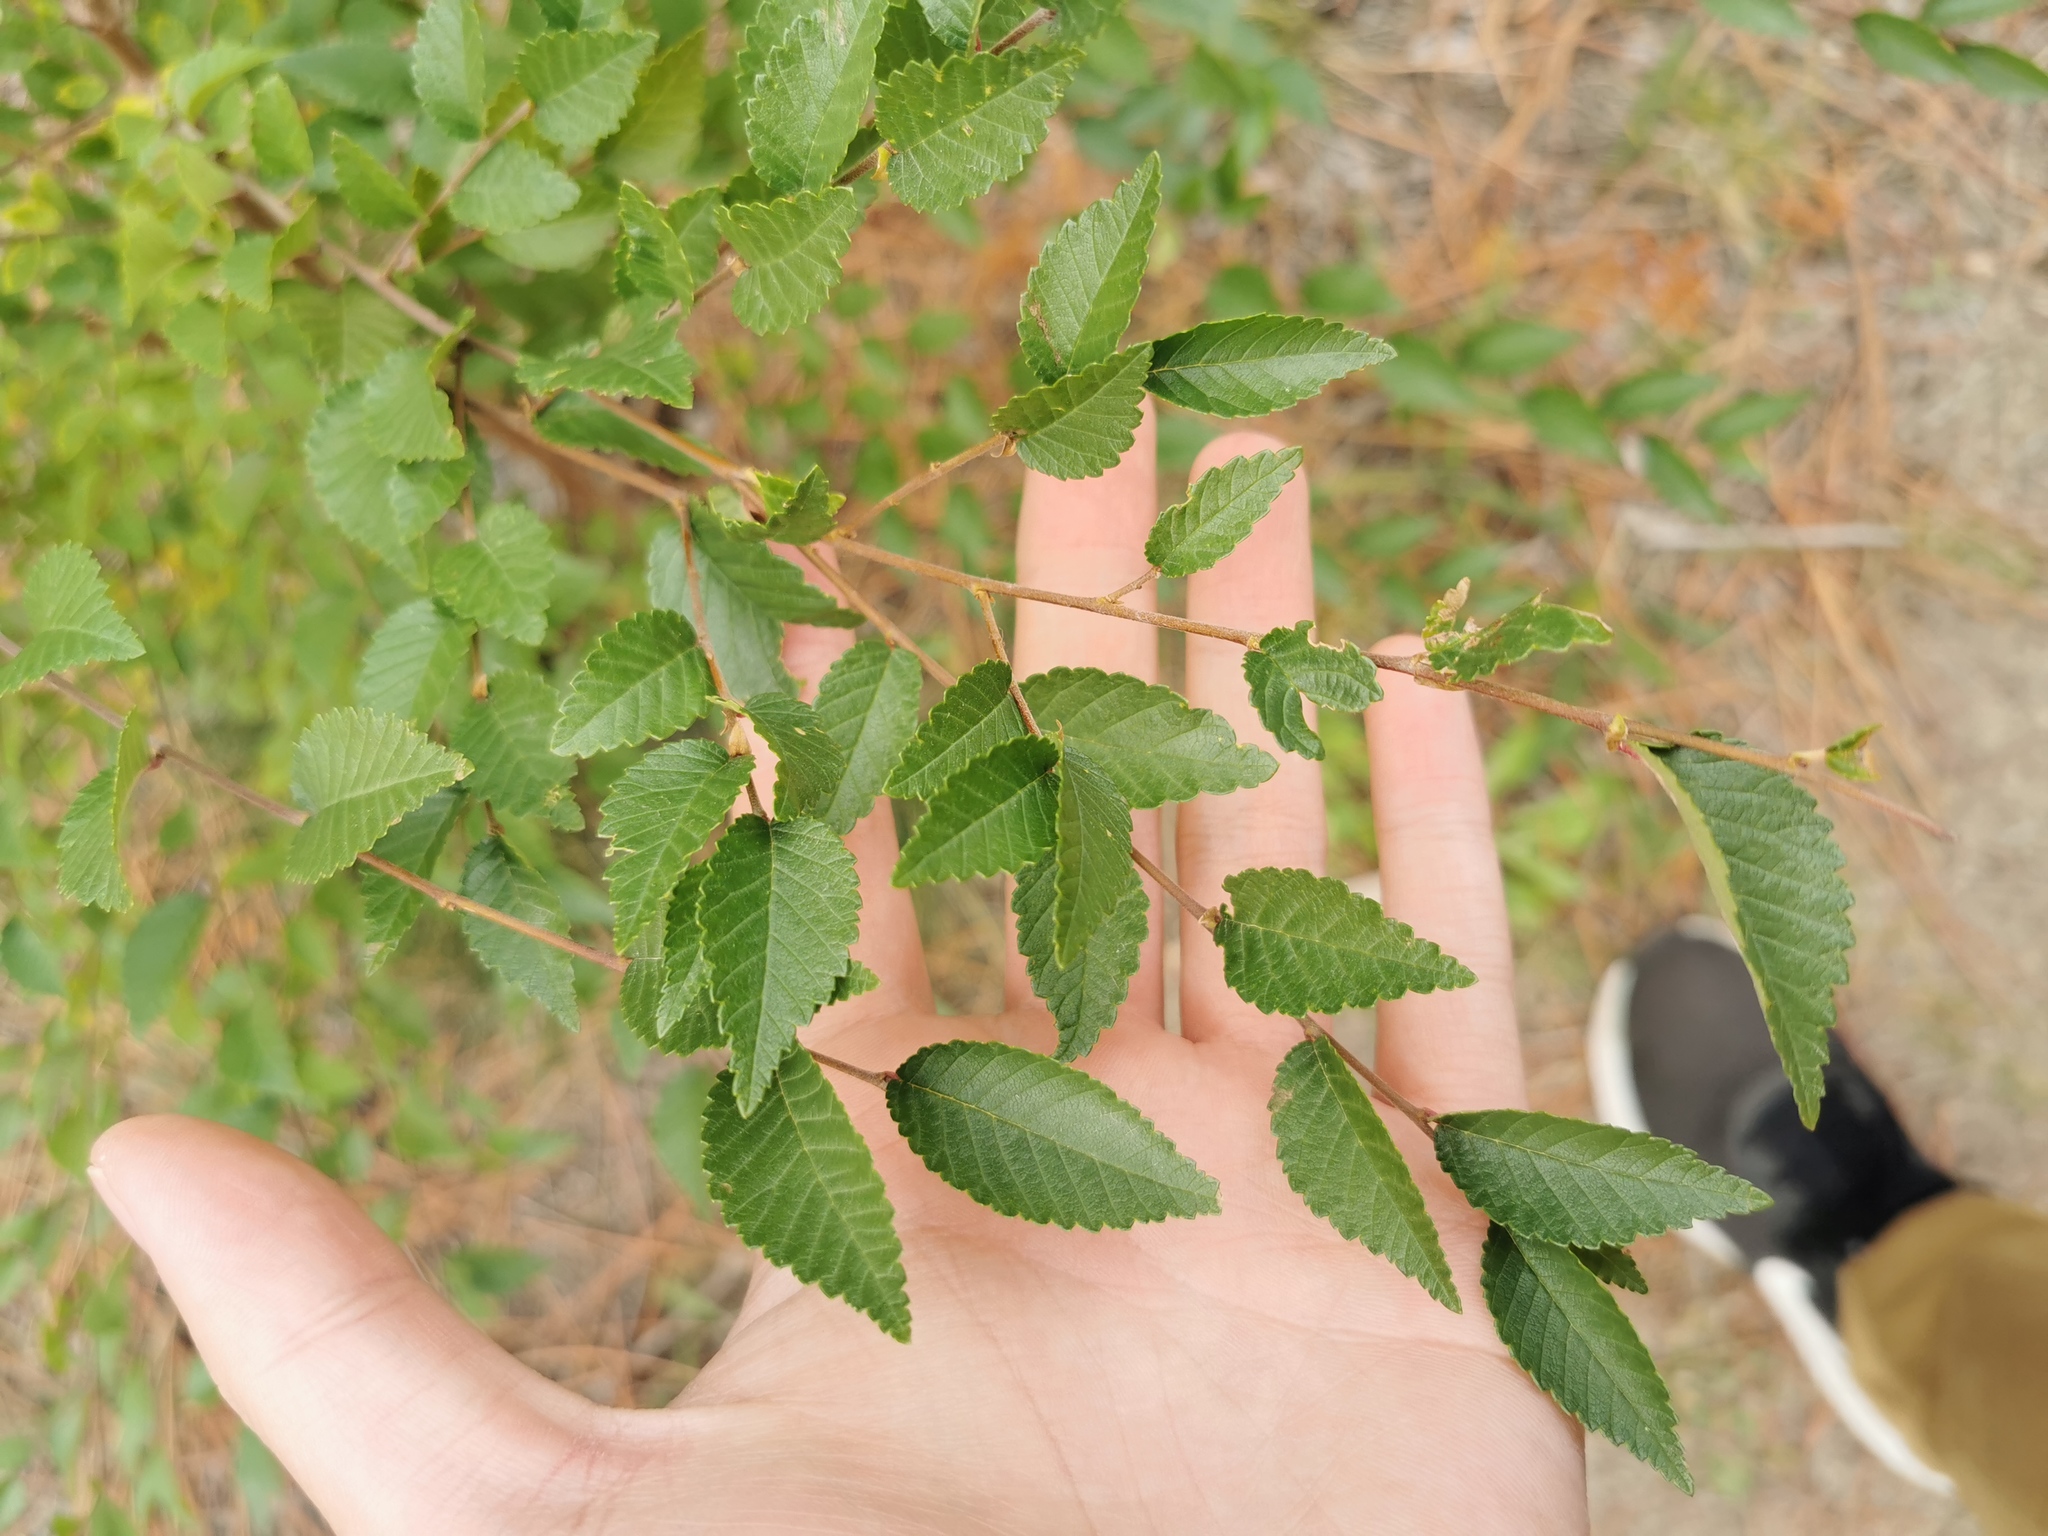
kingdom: Plantae
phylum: Tracheophyta
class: Magnoliopsida
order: Rosales
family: Ulmaceae
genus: Ulmus
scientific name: Ulmus pumila
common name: Siberian elm
